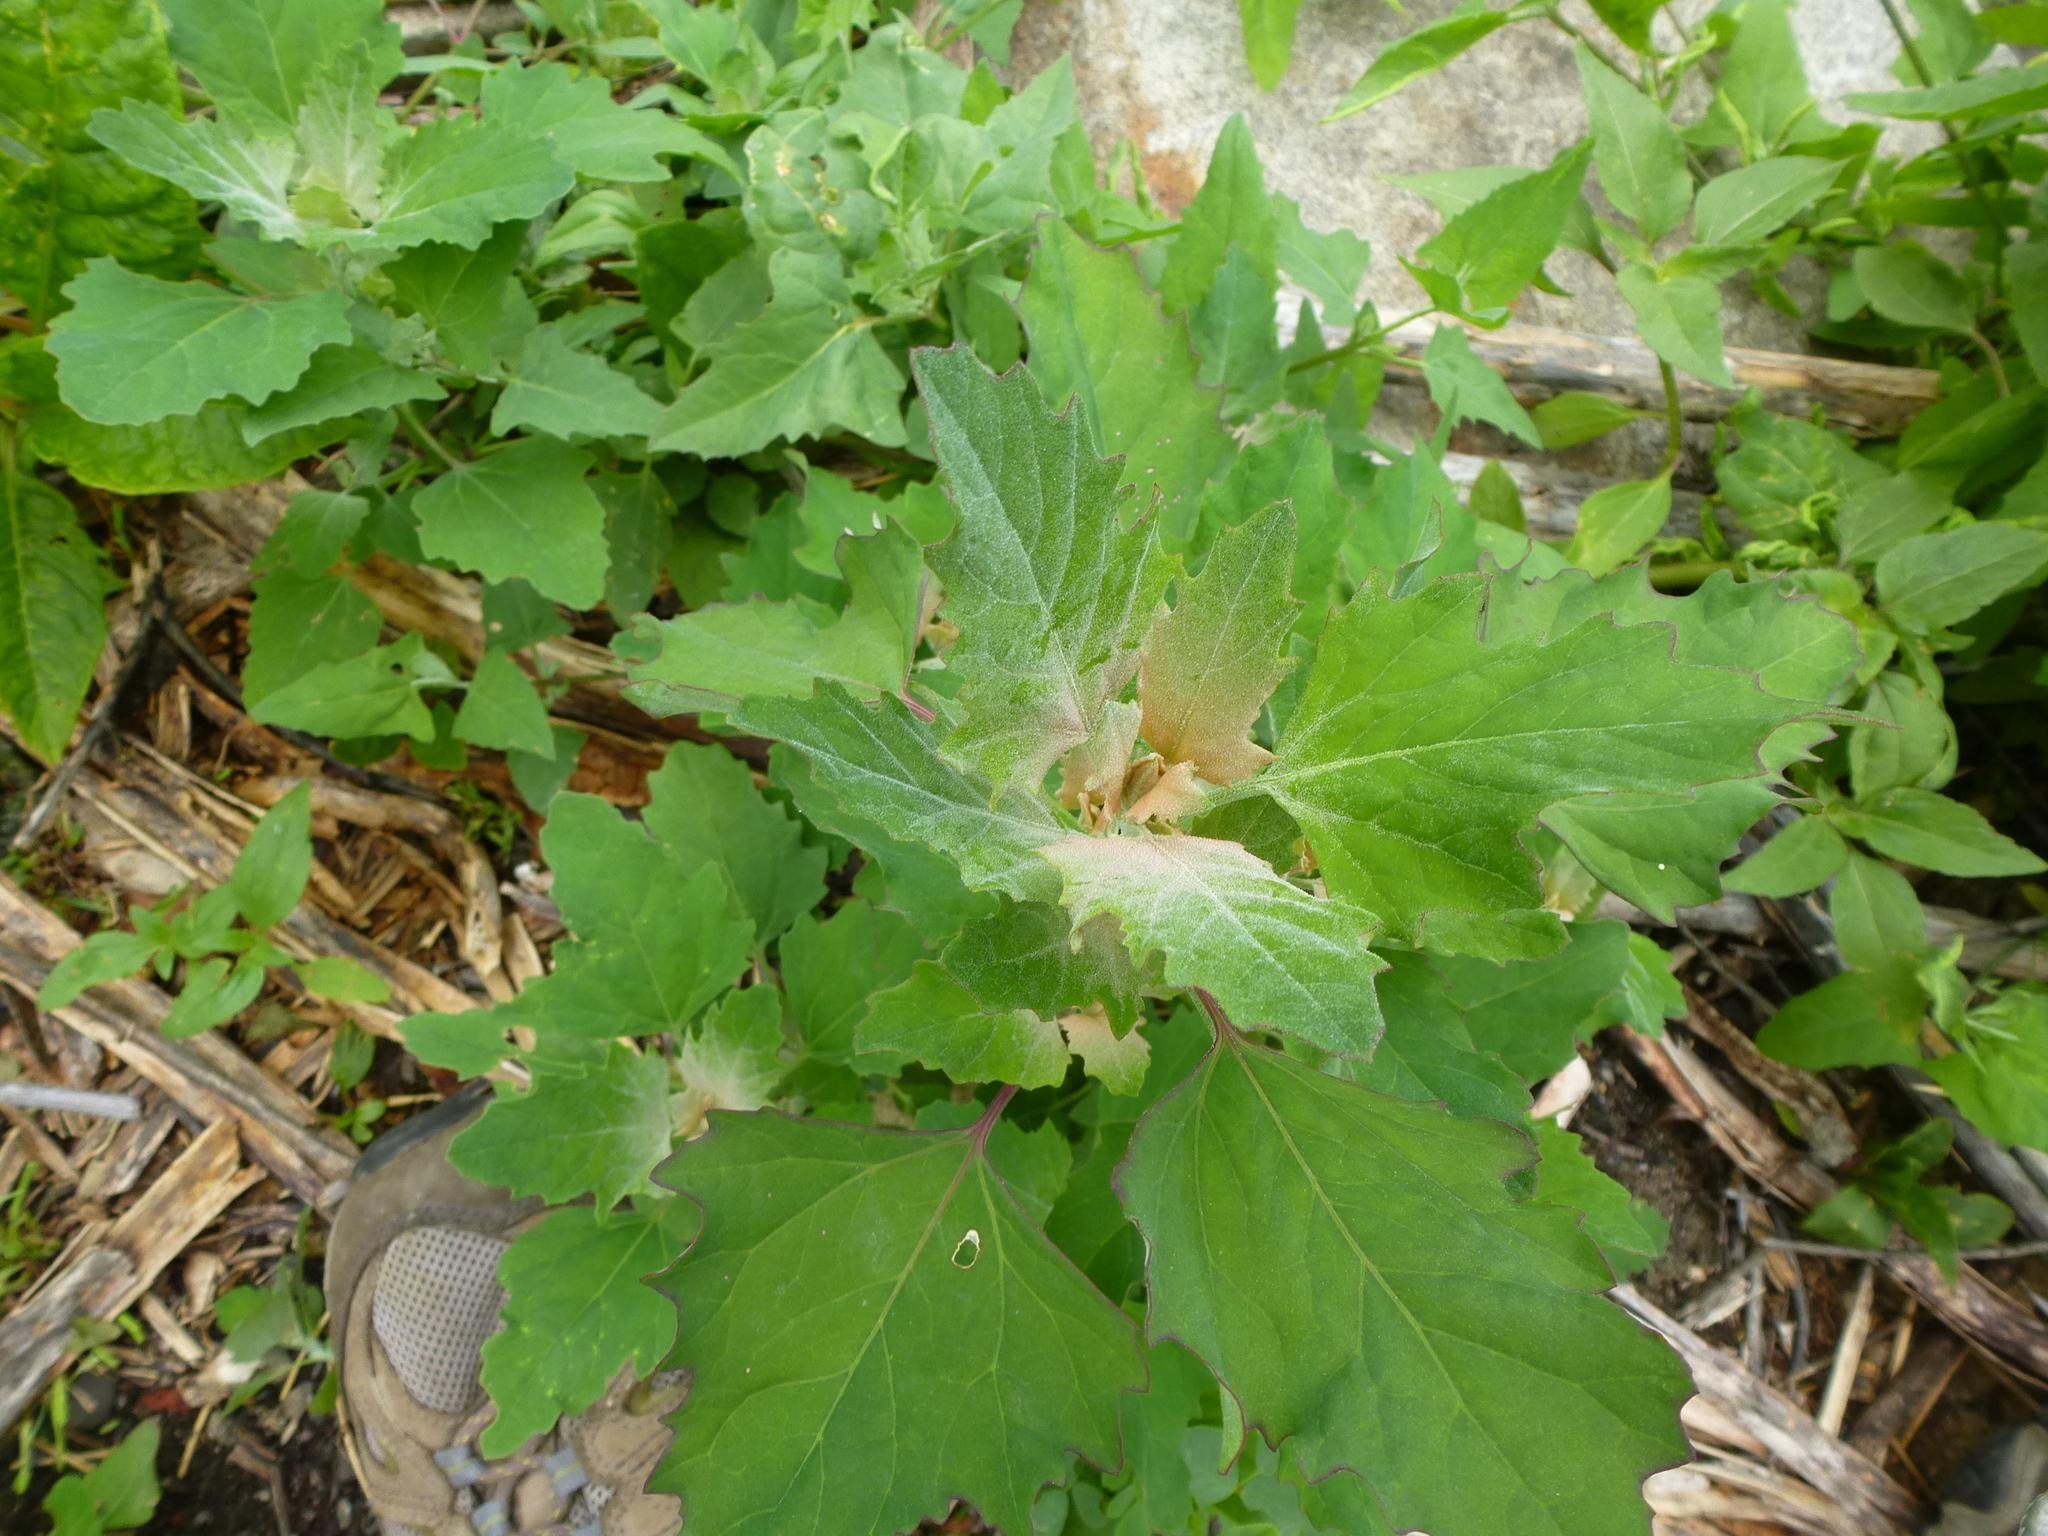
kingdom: Plantae
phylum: Tracheophyta
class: Magnoliopsida
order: Caryophyllales
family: Amaranthaceae
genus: Chenopodium
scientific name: Chenopodium album
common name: Fat-hen
